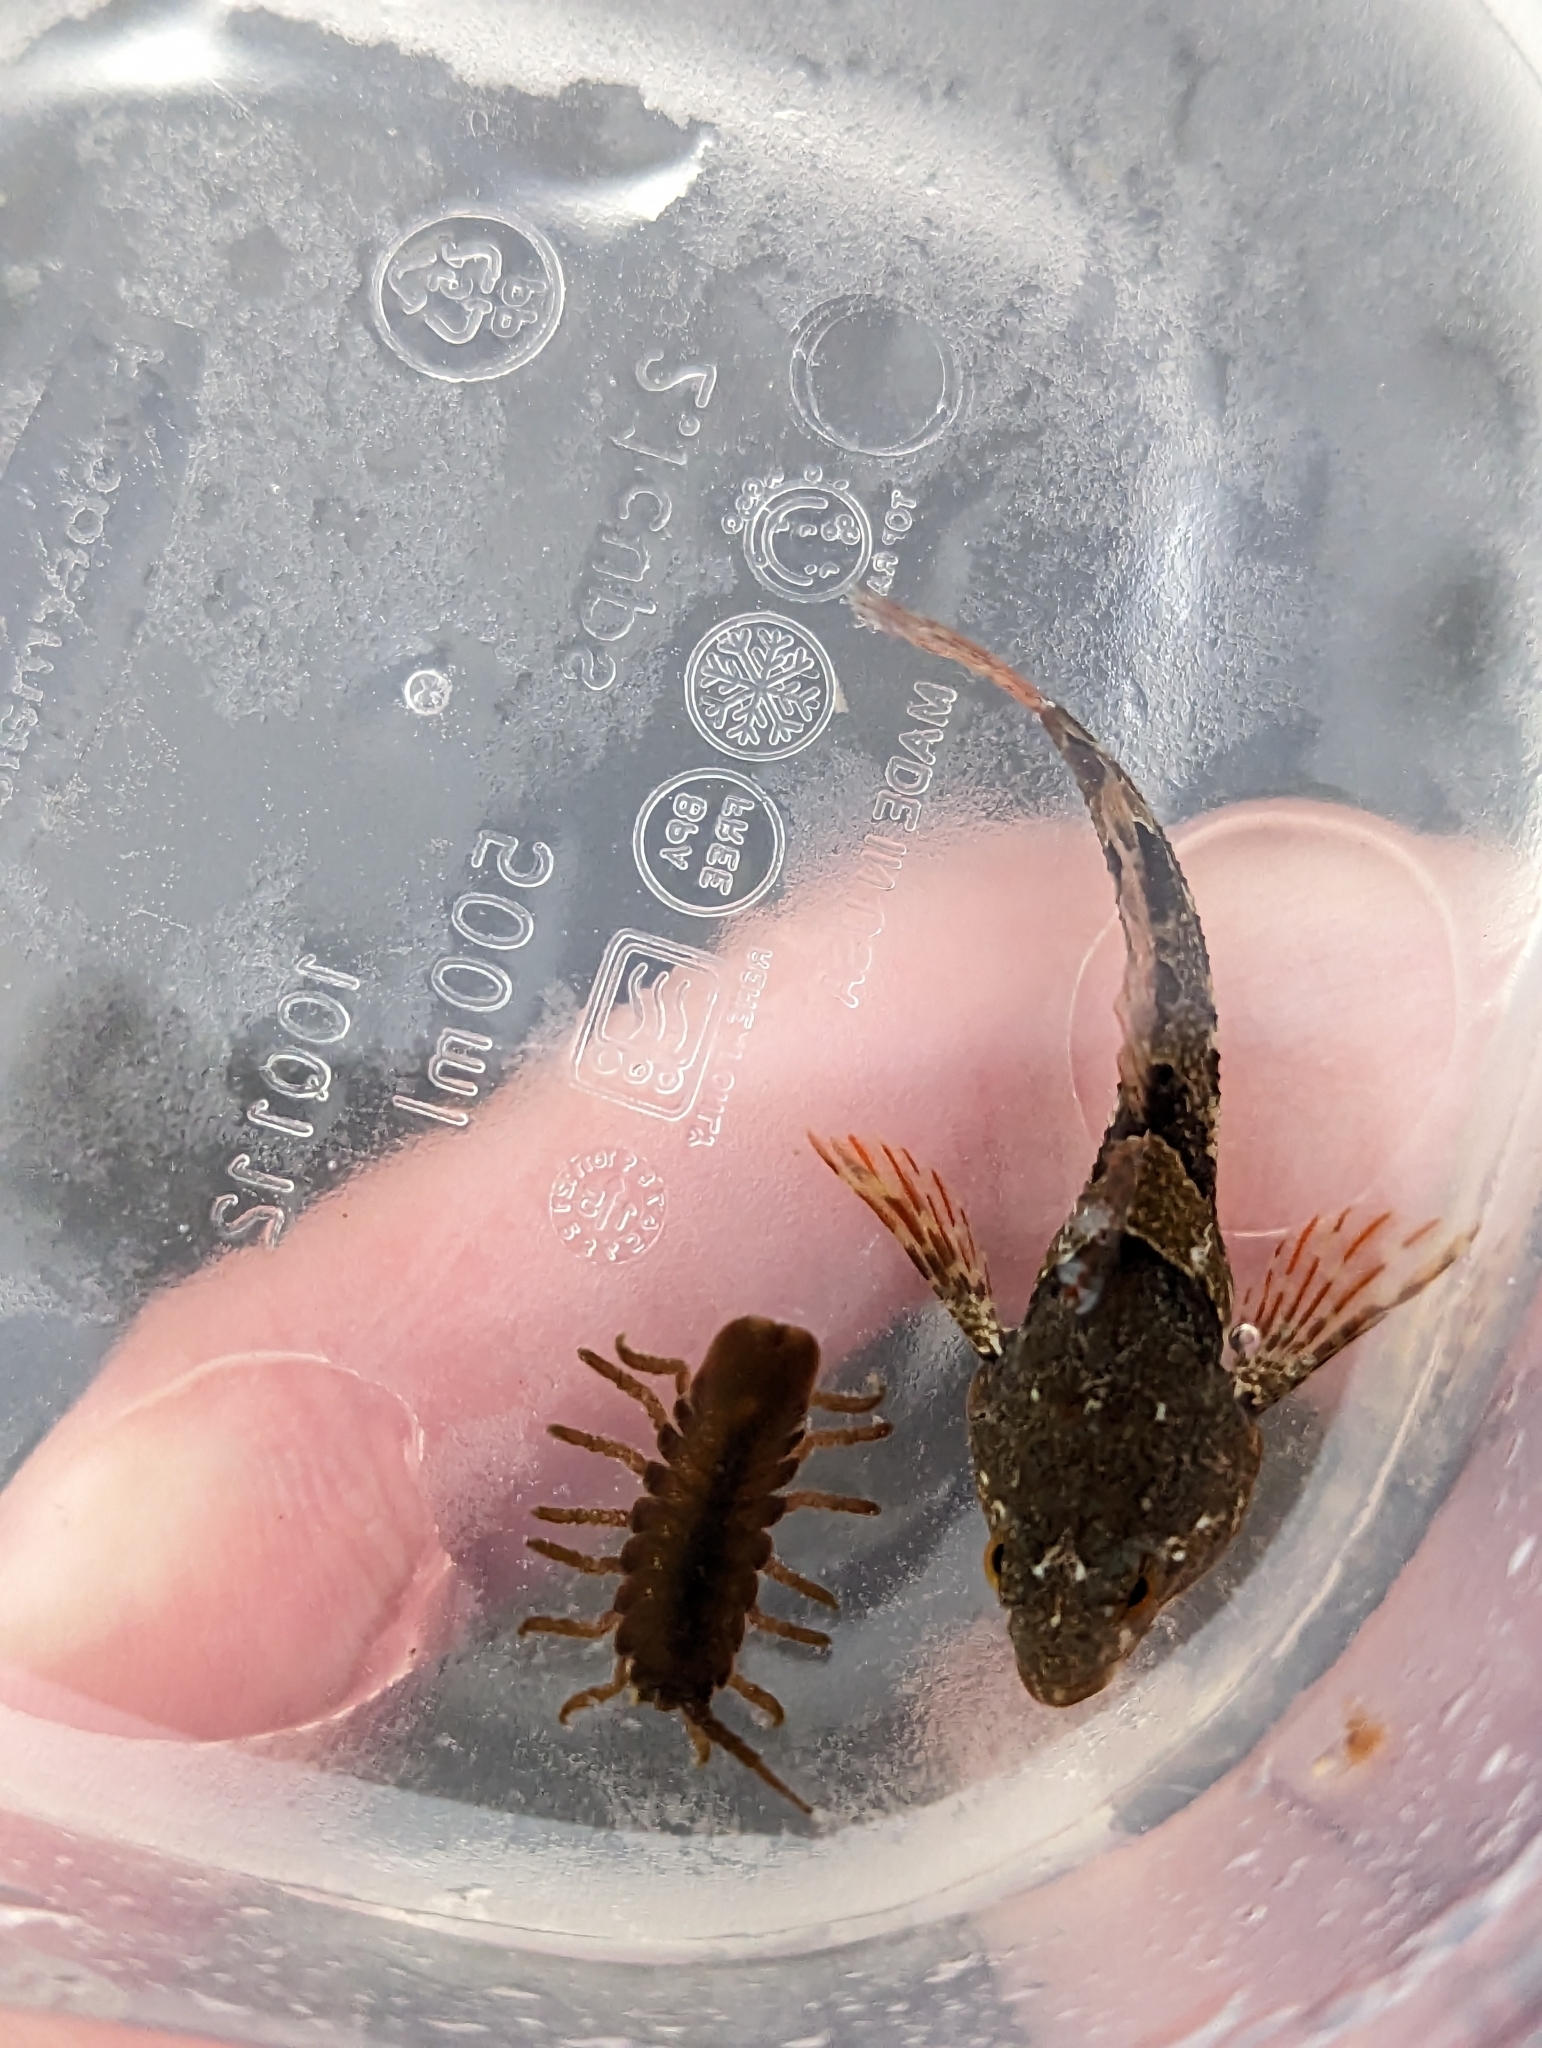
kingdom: Animalia
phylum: Arthropoda
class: Malacostraca
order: Isopoda
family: Idoteidae
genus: Pentidotea
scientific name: Pentidotea wosnesenskii
